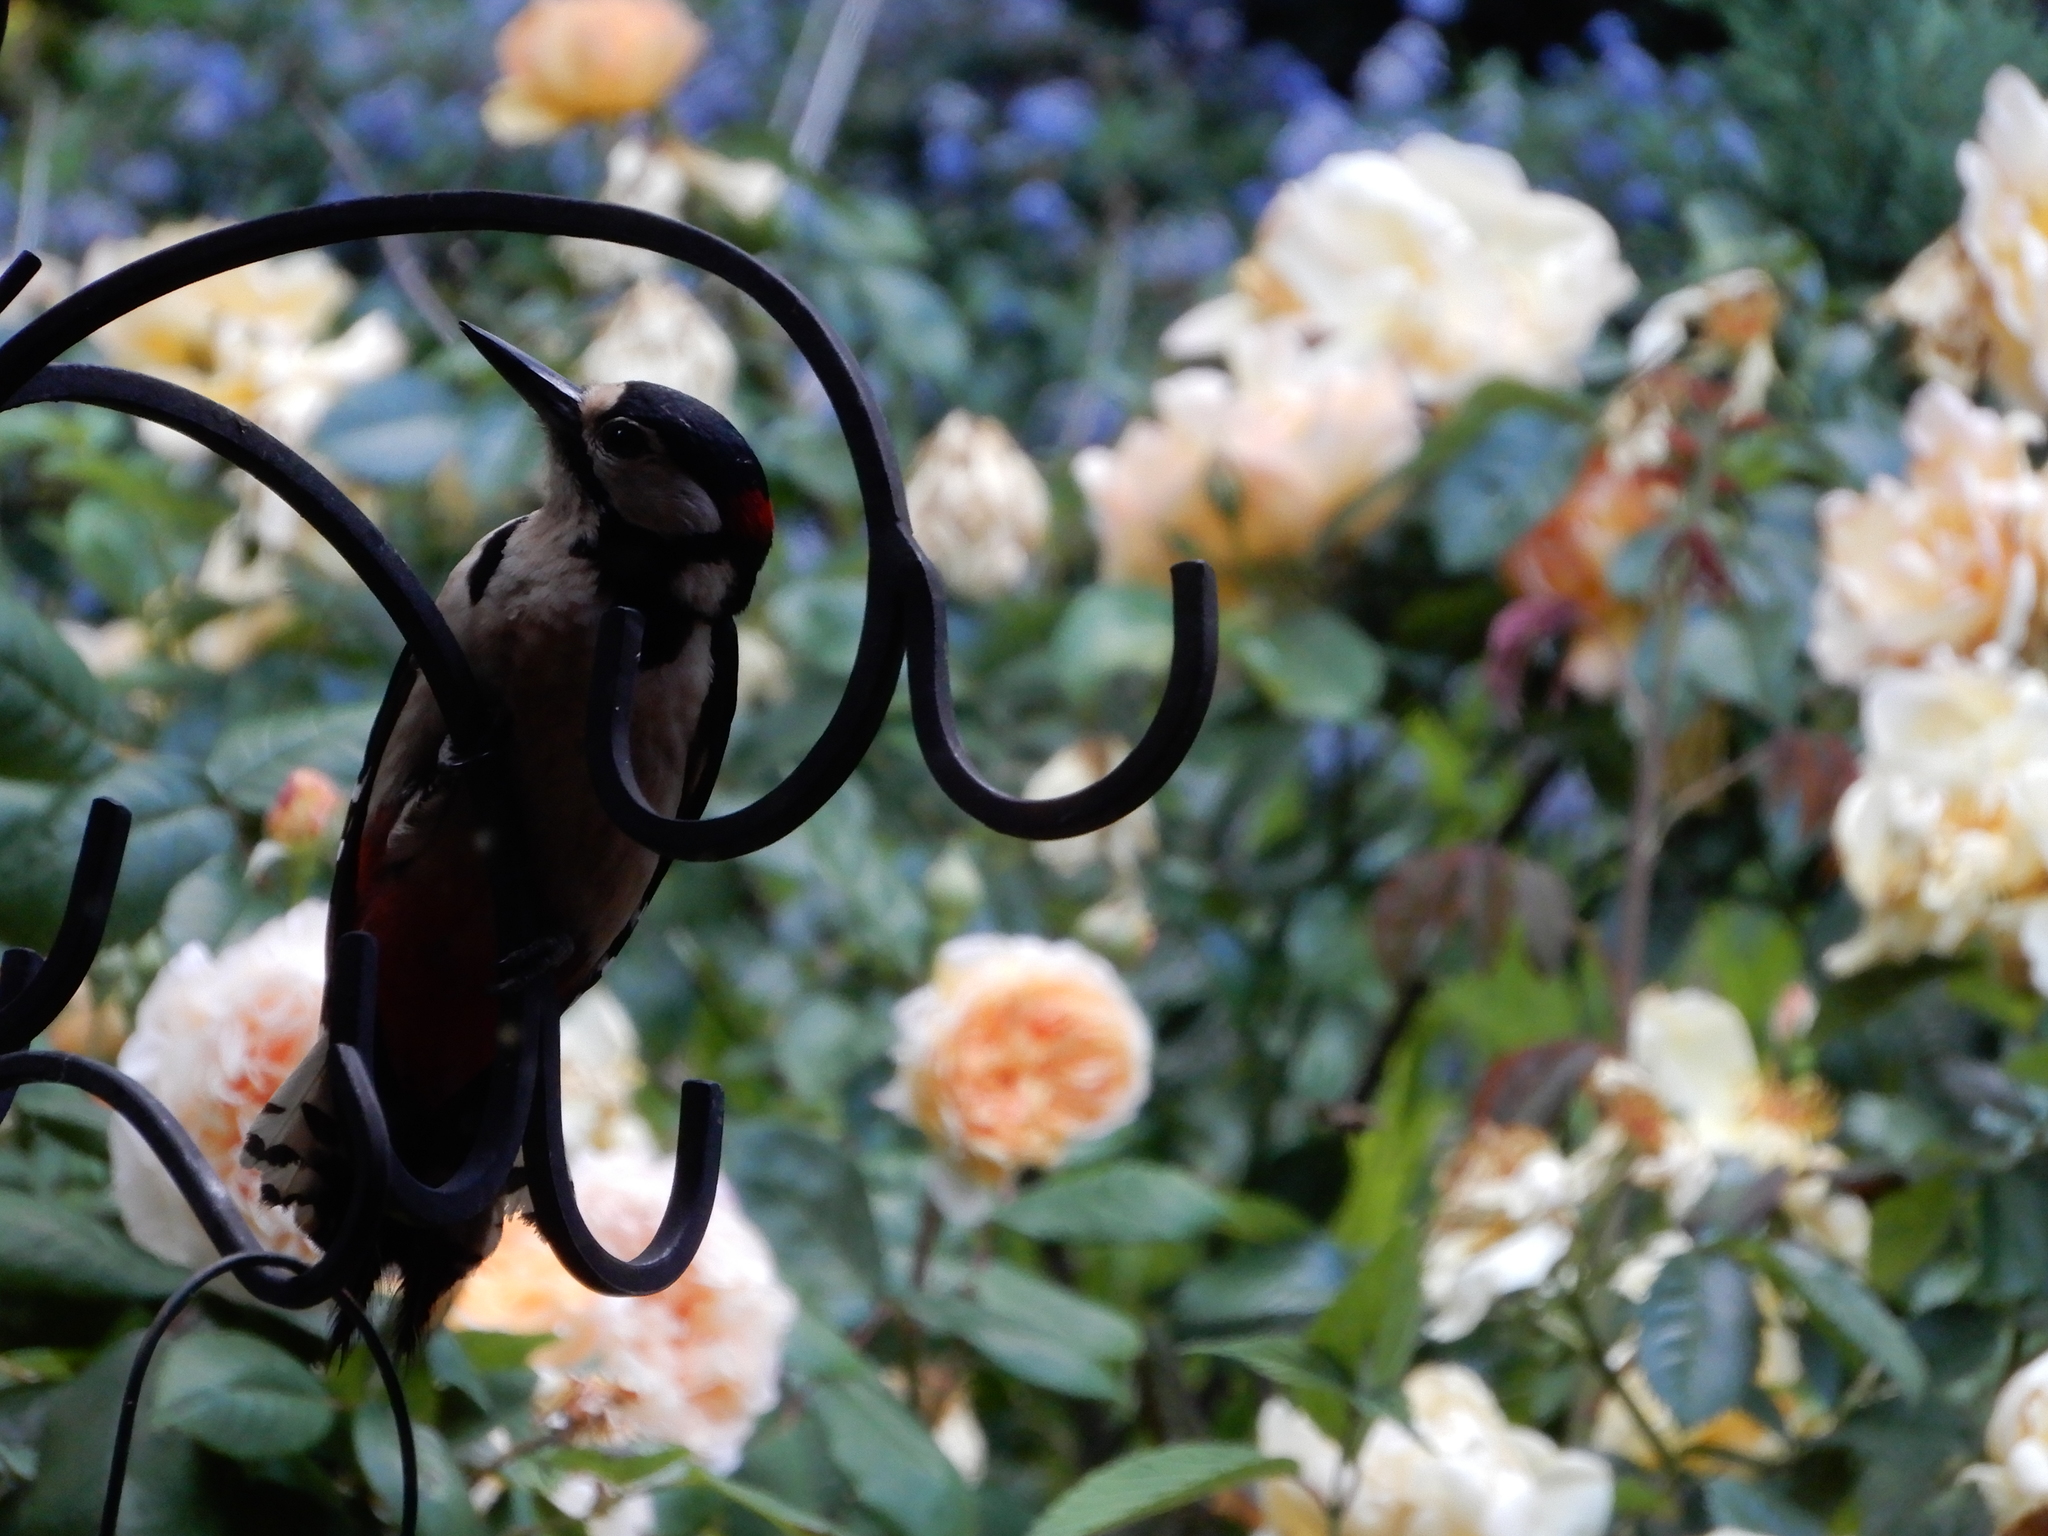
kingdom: Animalia
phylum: Chordata
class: Aves
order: Piciformes
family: Picidae
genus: Dendrocopos
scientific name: Dendrocopos major
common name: Great spotted woodpecker
